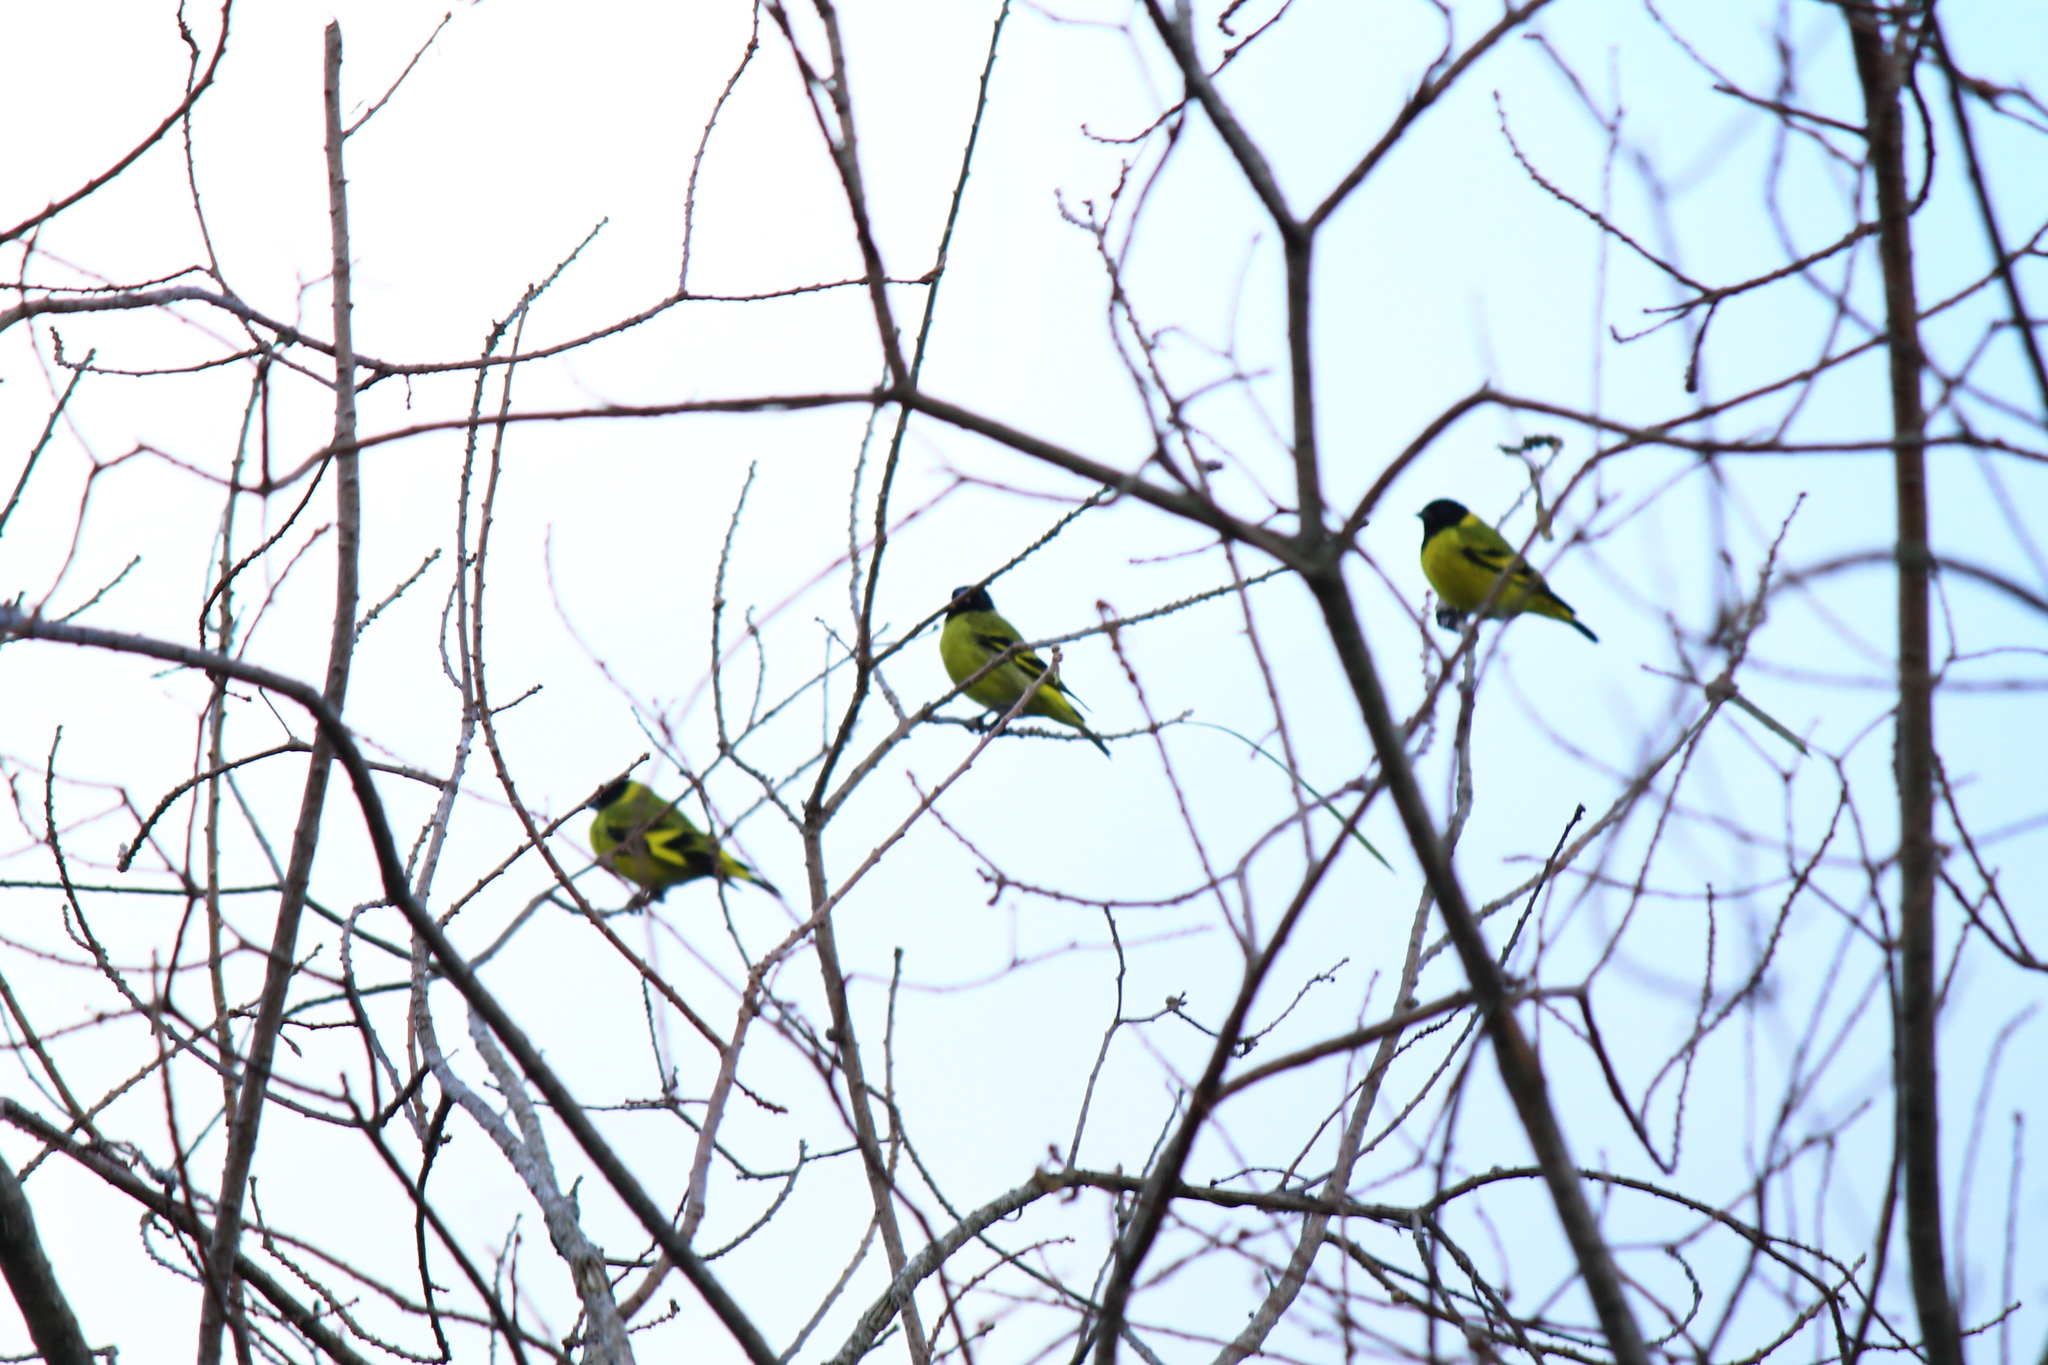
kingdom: Animalia
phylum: Chordata
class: Aves
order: Passeriformes
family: Fringillidae
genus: Spinus
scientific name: Spinus magellanicus
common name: Hooded siskin
